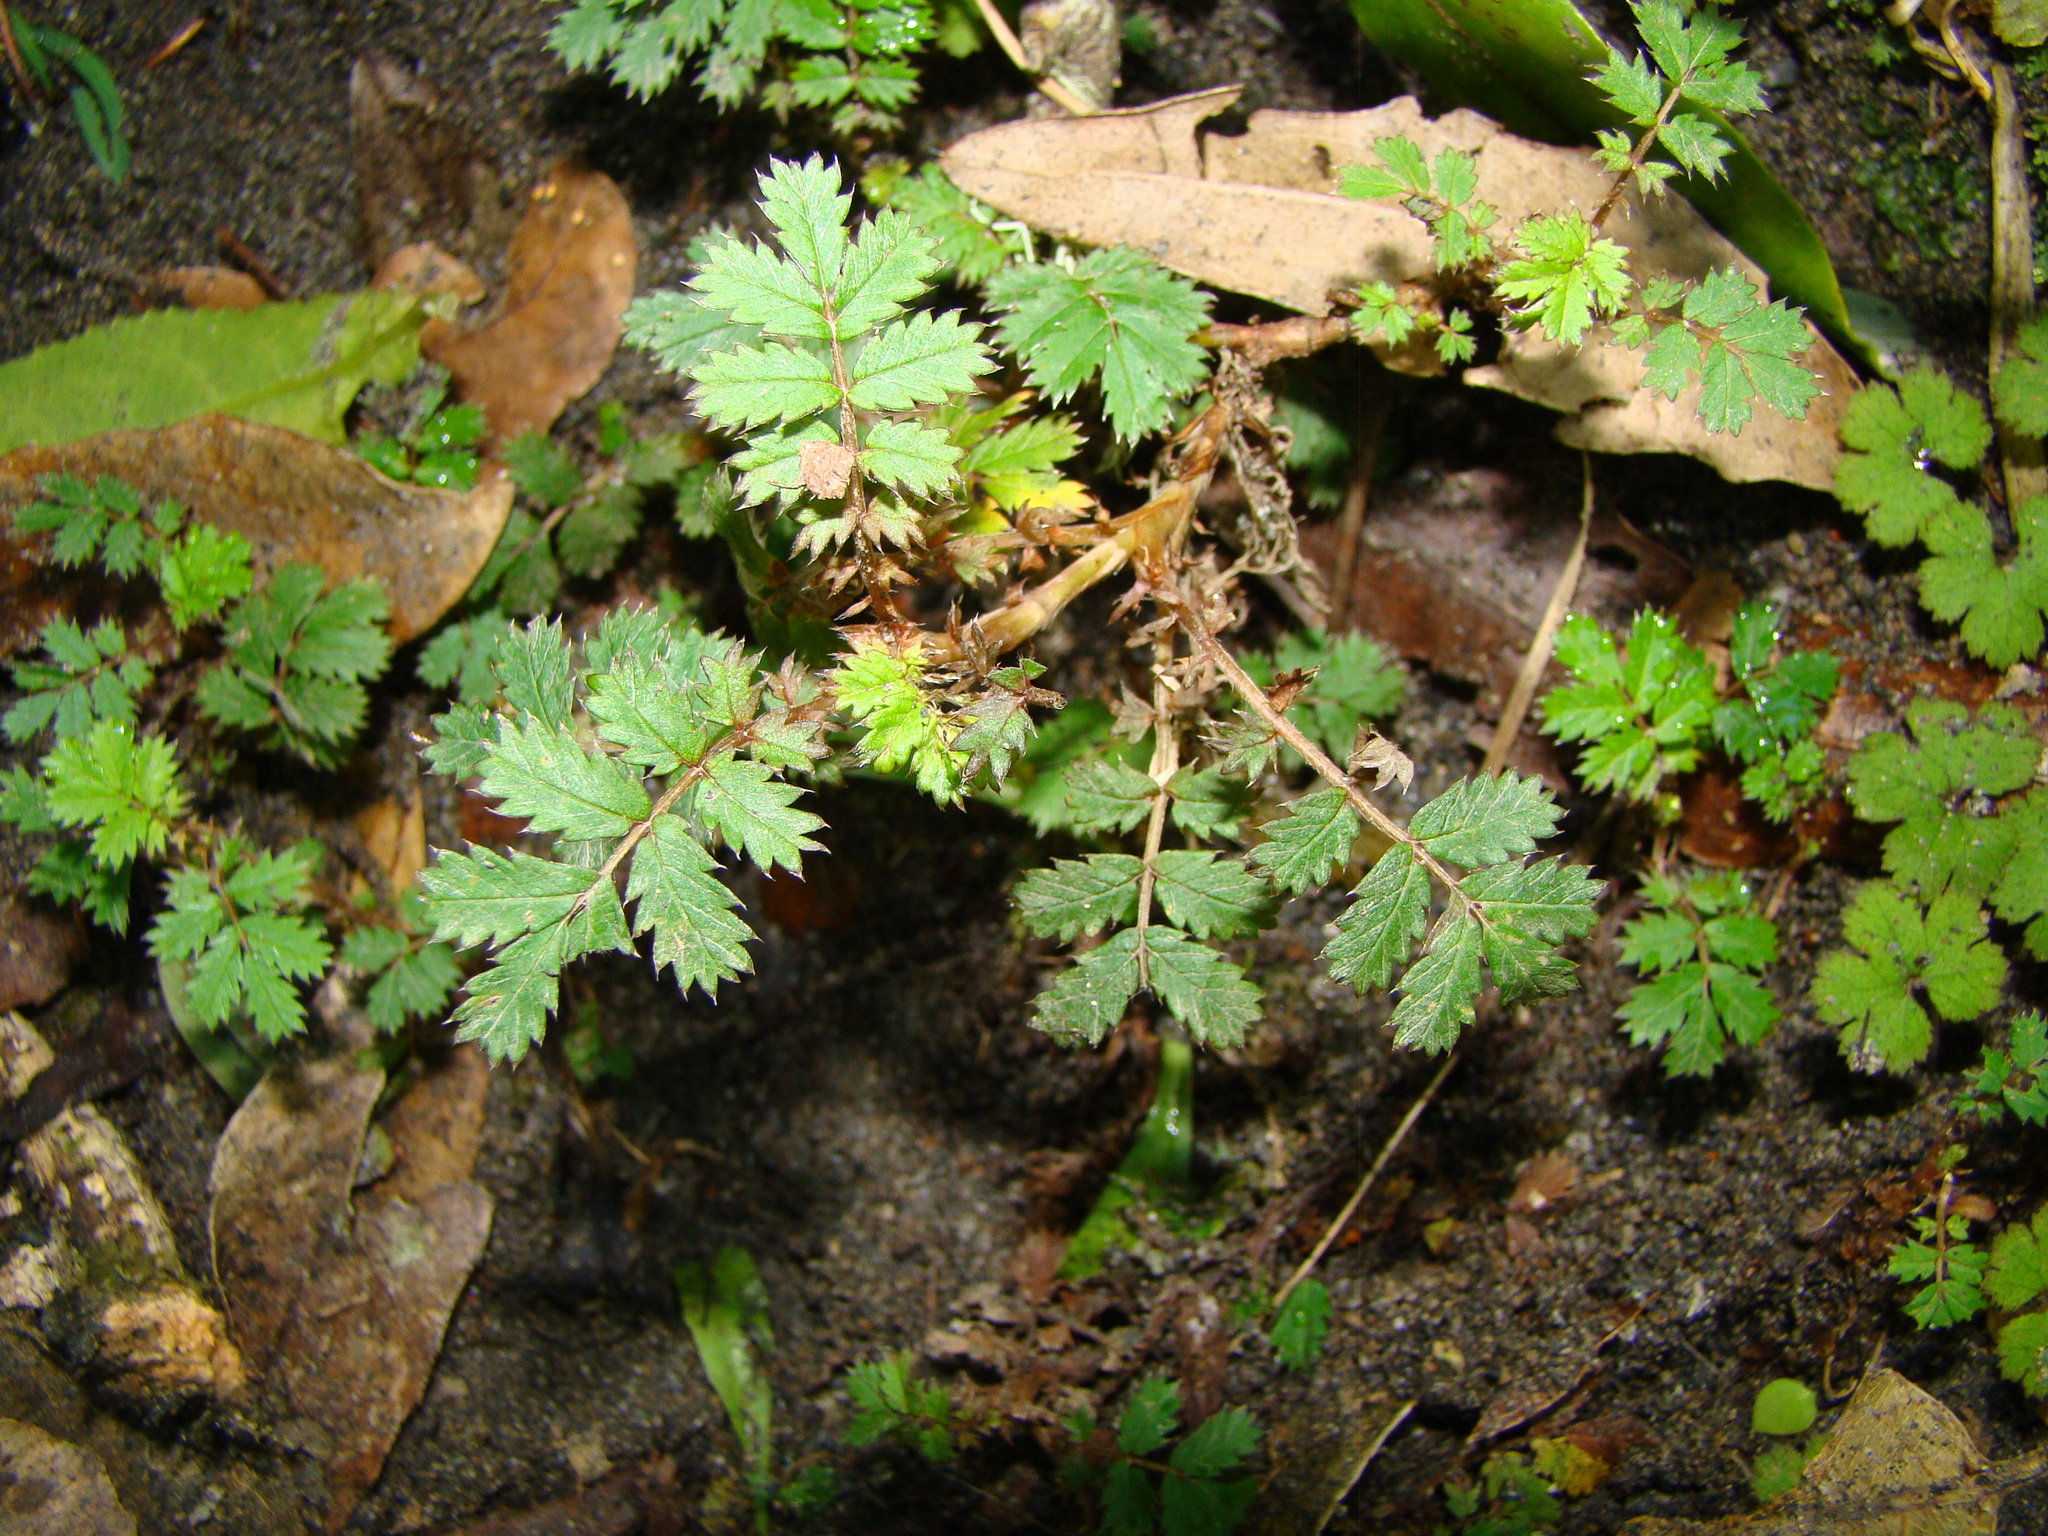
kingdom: Plantae
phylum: Tracheophyta
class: Magnoliopsida
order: Rosales
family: Rosaceae
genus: Acaena
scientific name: Acaena anserinifolia
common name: Bronze pirri-pirri-bur
